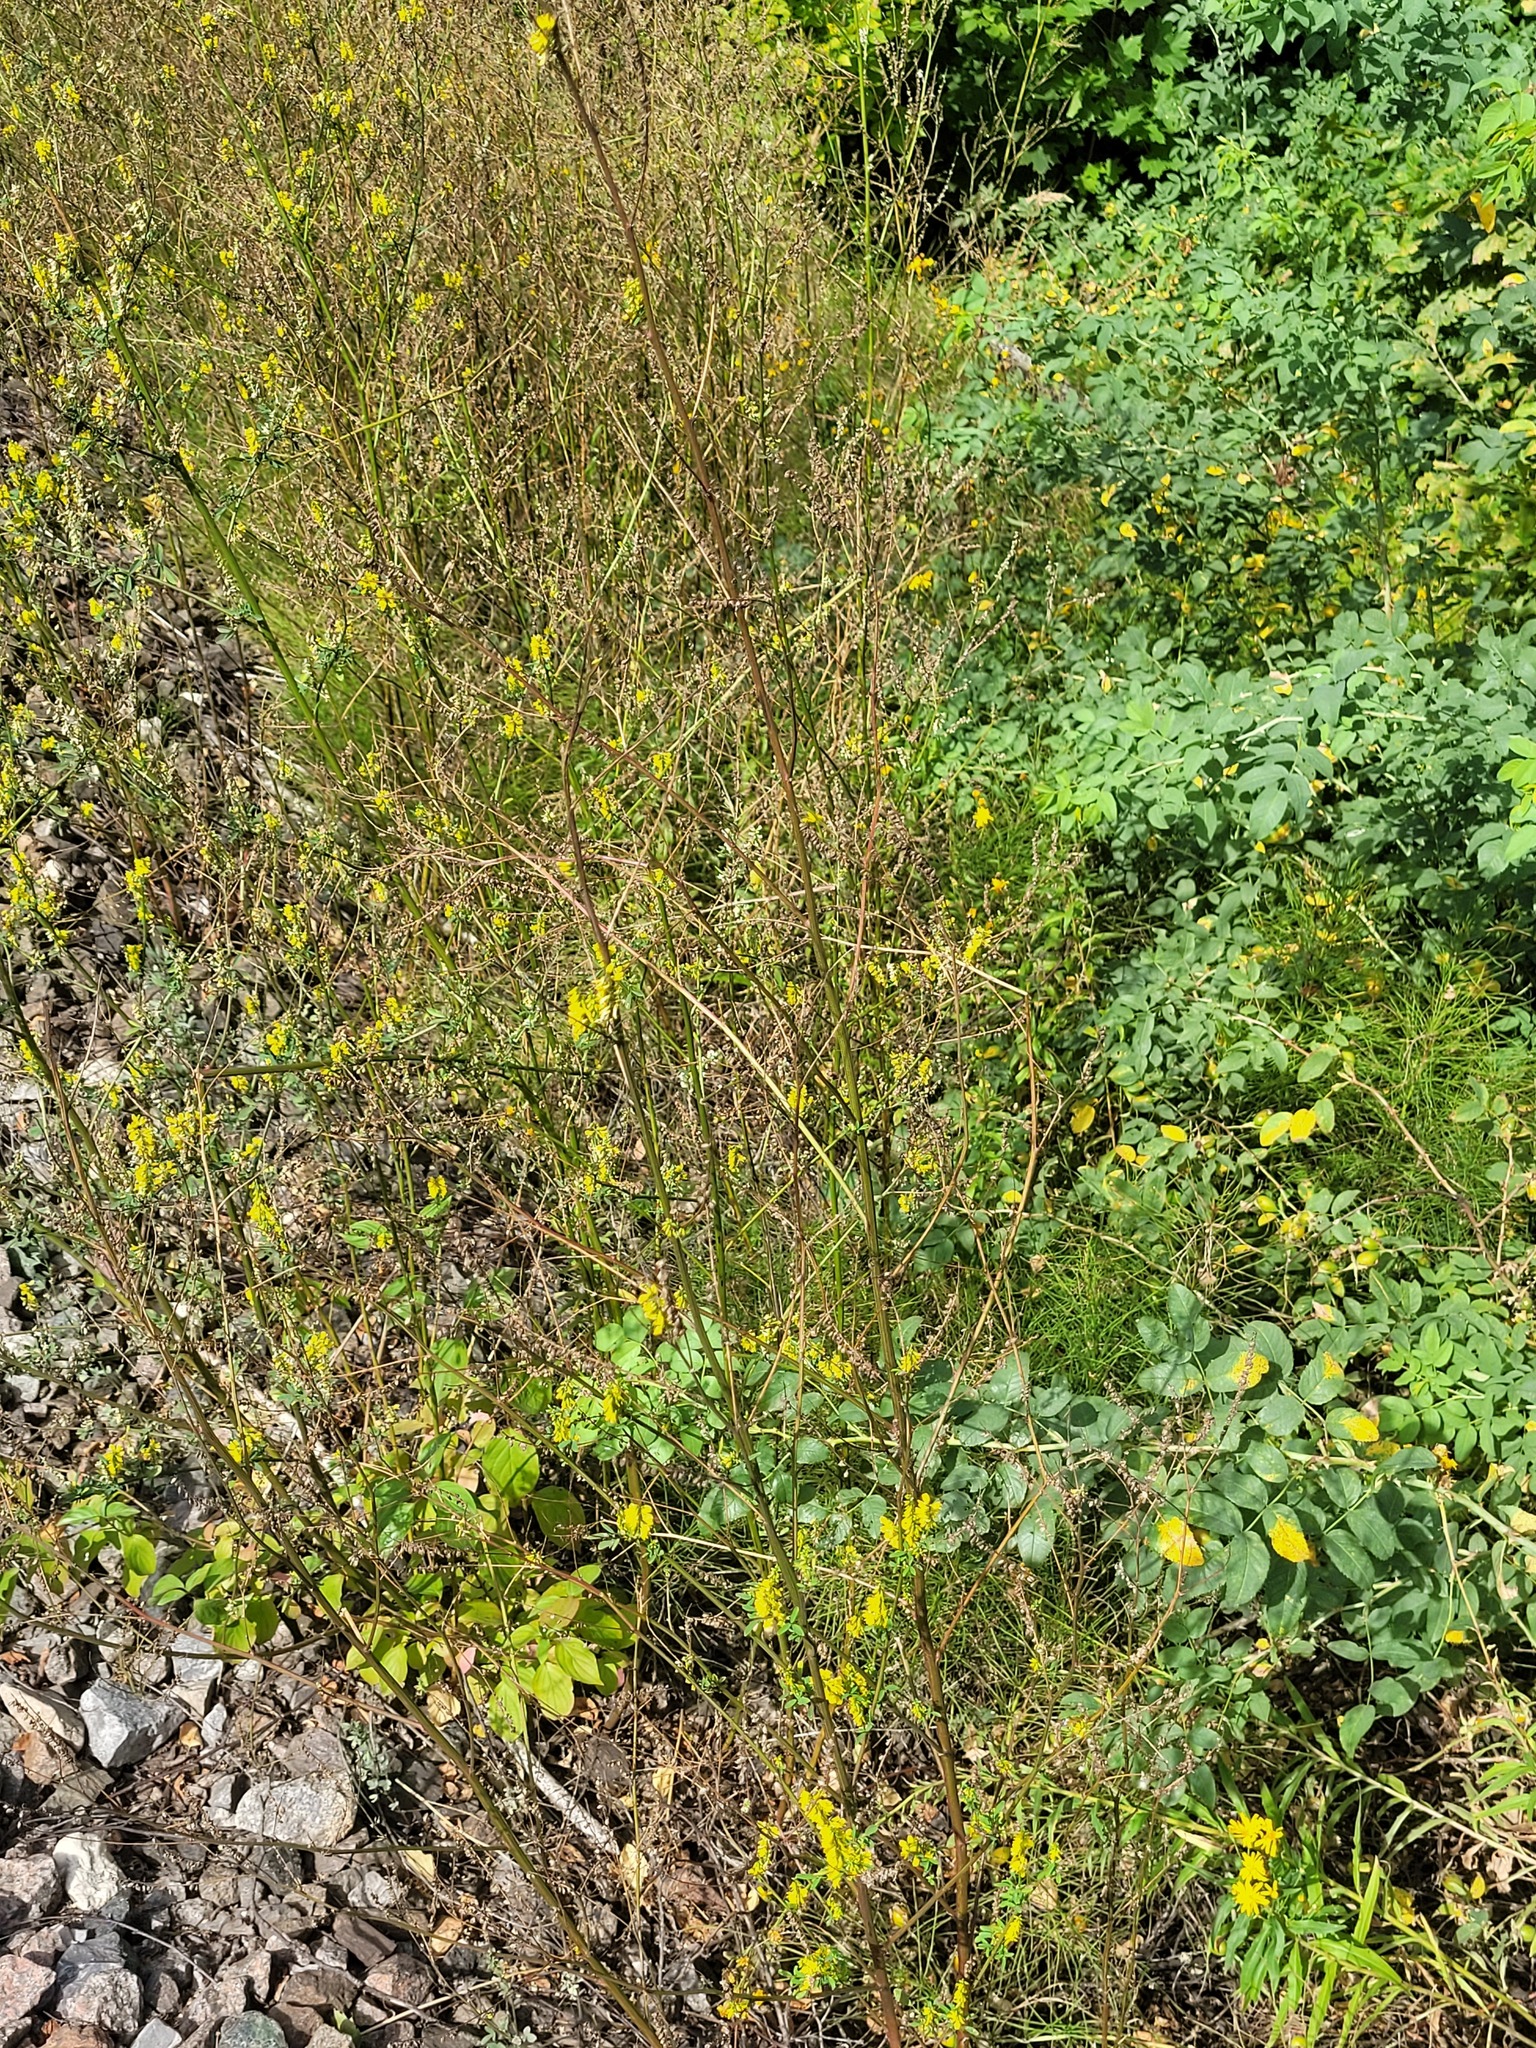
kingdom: Plantae
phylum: Tracheophyta
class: Magnoliopsida
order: Fabales
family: Fabaceae
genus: Melilotus
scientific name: Melilotus officinalis
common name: Sweetclover
